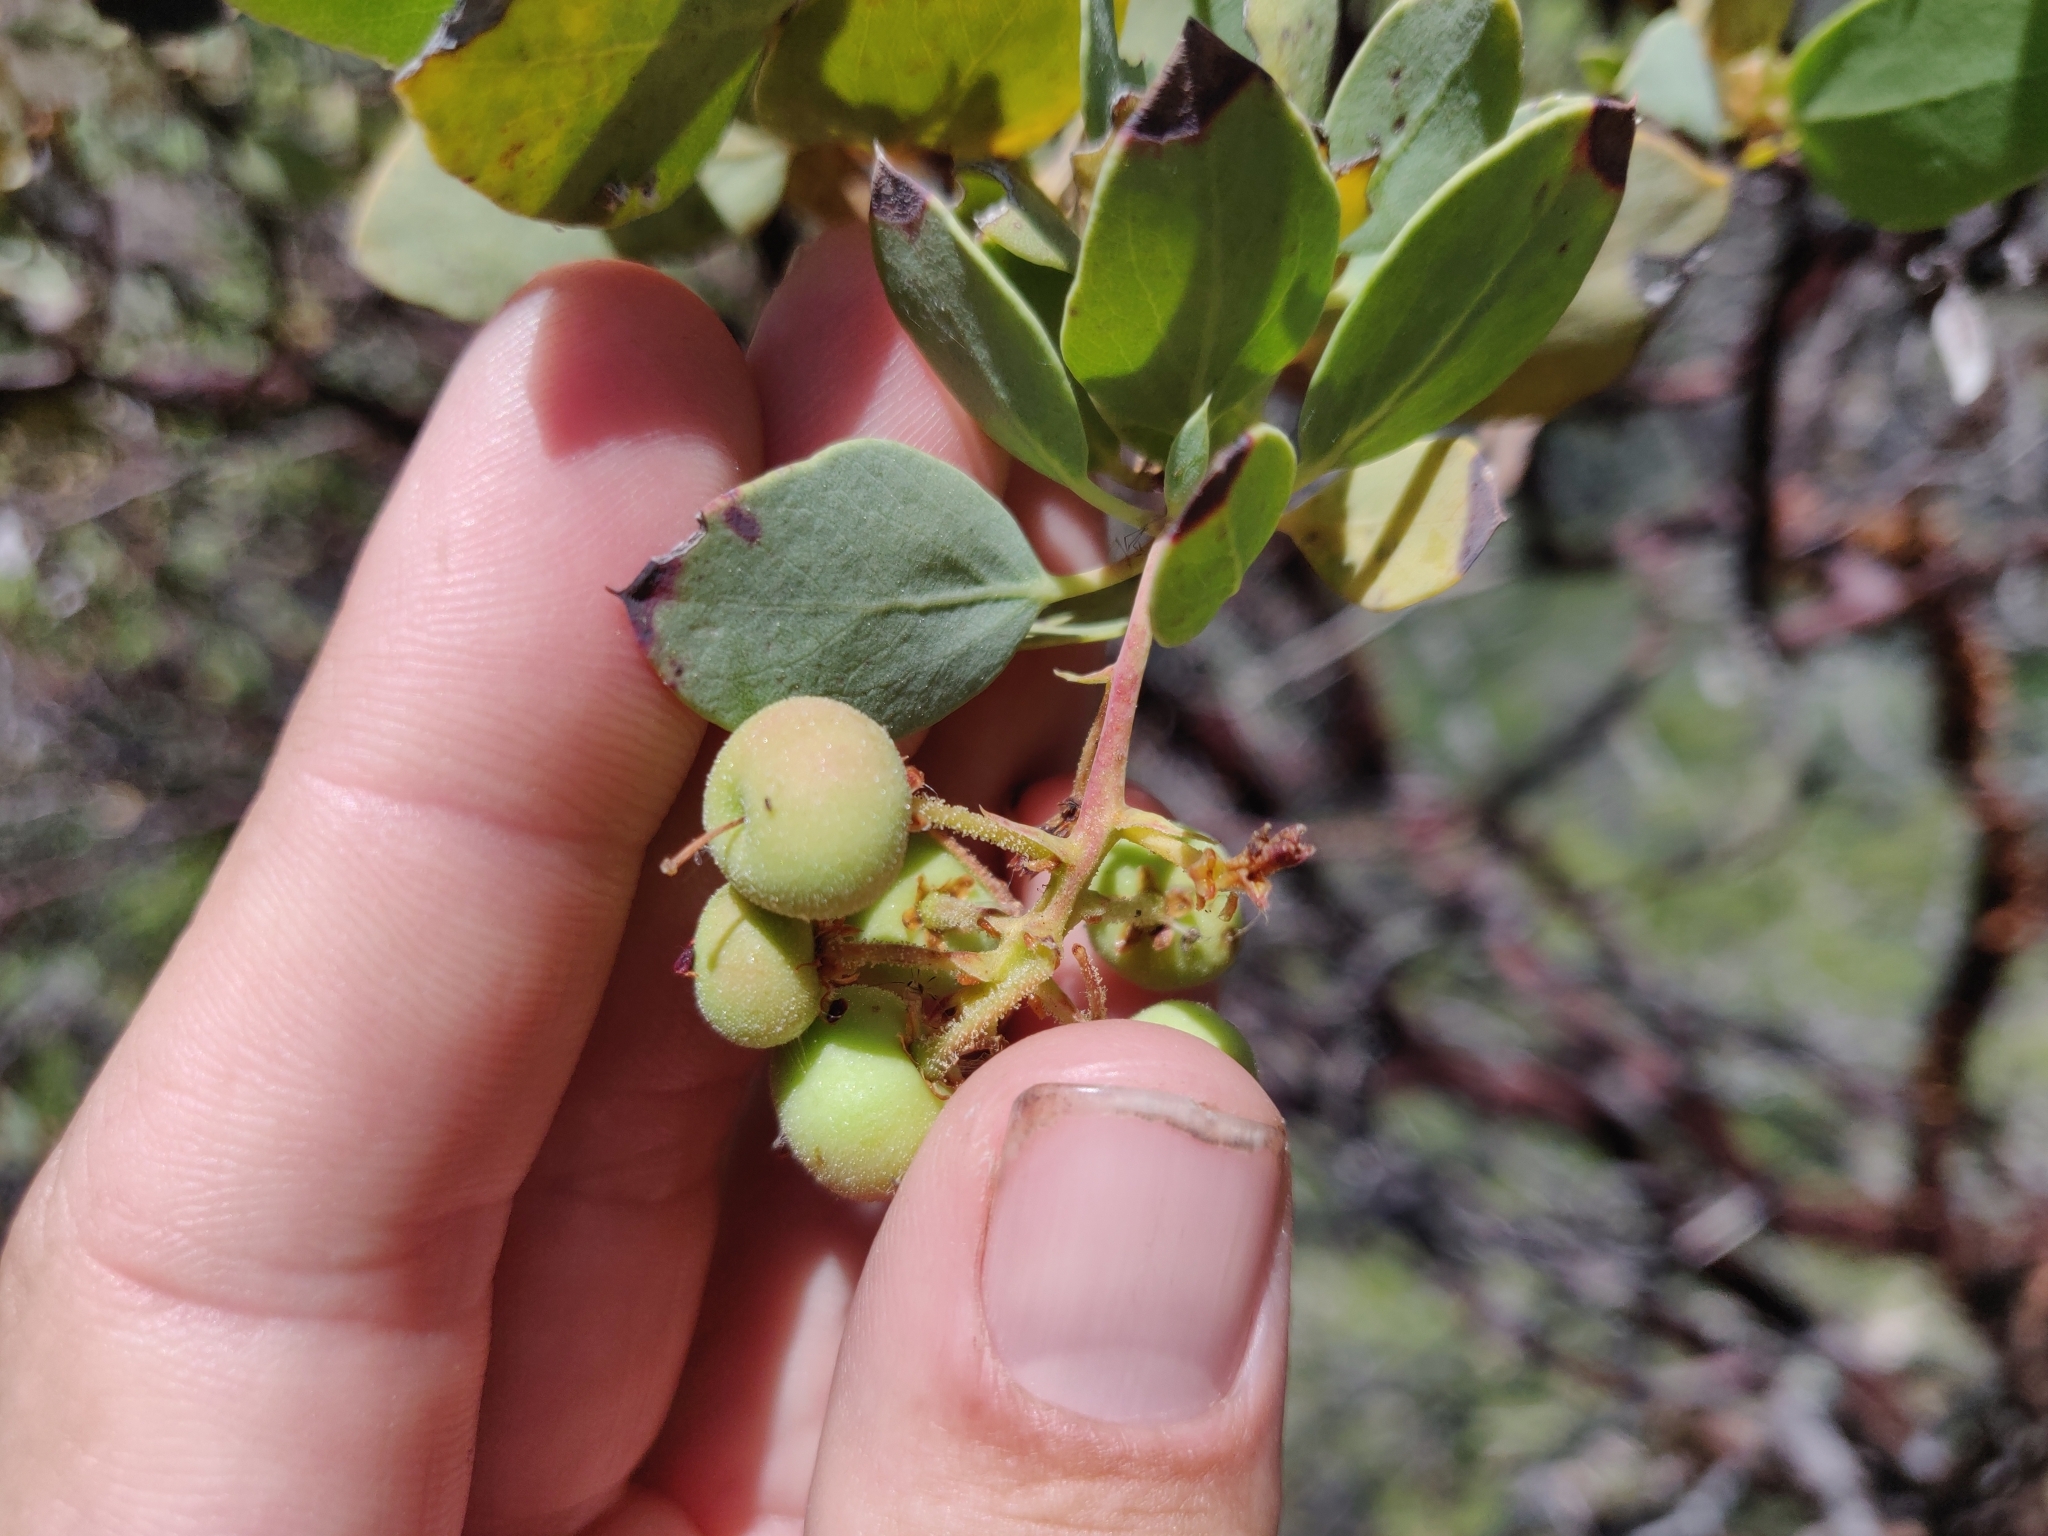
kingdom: Plantae
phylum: Tracheophyta
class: Magnoliopsida
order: Ericales
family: Ericaceae
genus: Arctostaphylos
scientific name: Arctostaphylos viscida
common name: White-leaf manzanita
